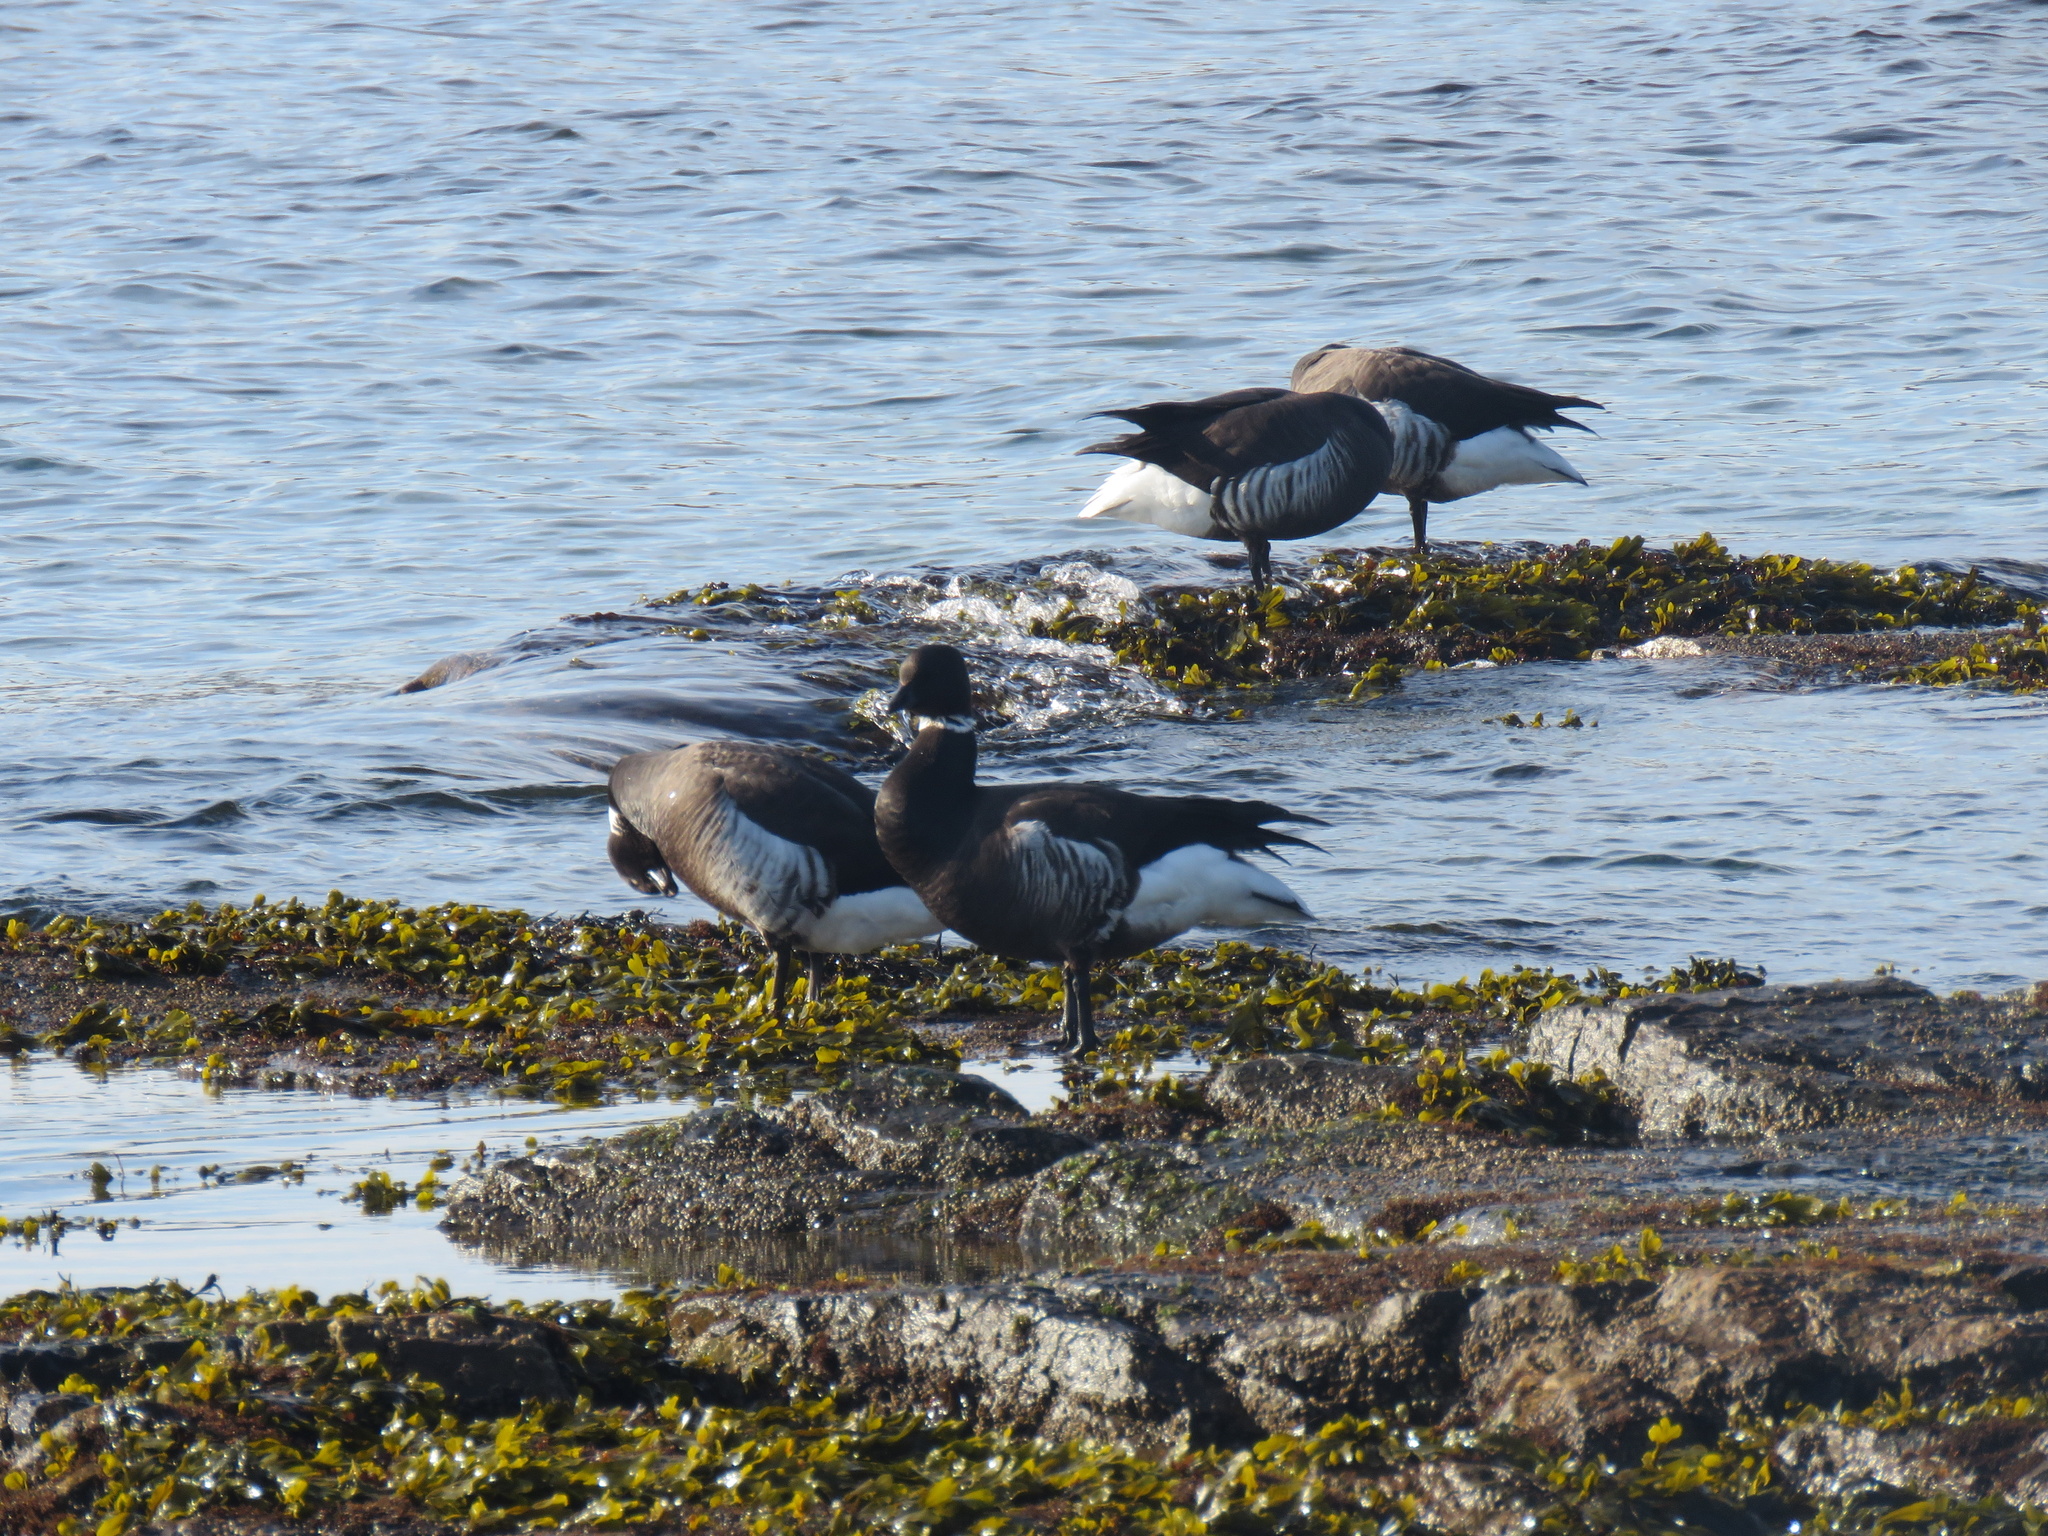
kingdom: Animalia
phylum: Chordata
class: Aves
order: Anseriformes
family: Anatidae
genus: Branta
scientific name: Branta bernicla
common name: Brant goose
